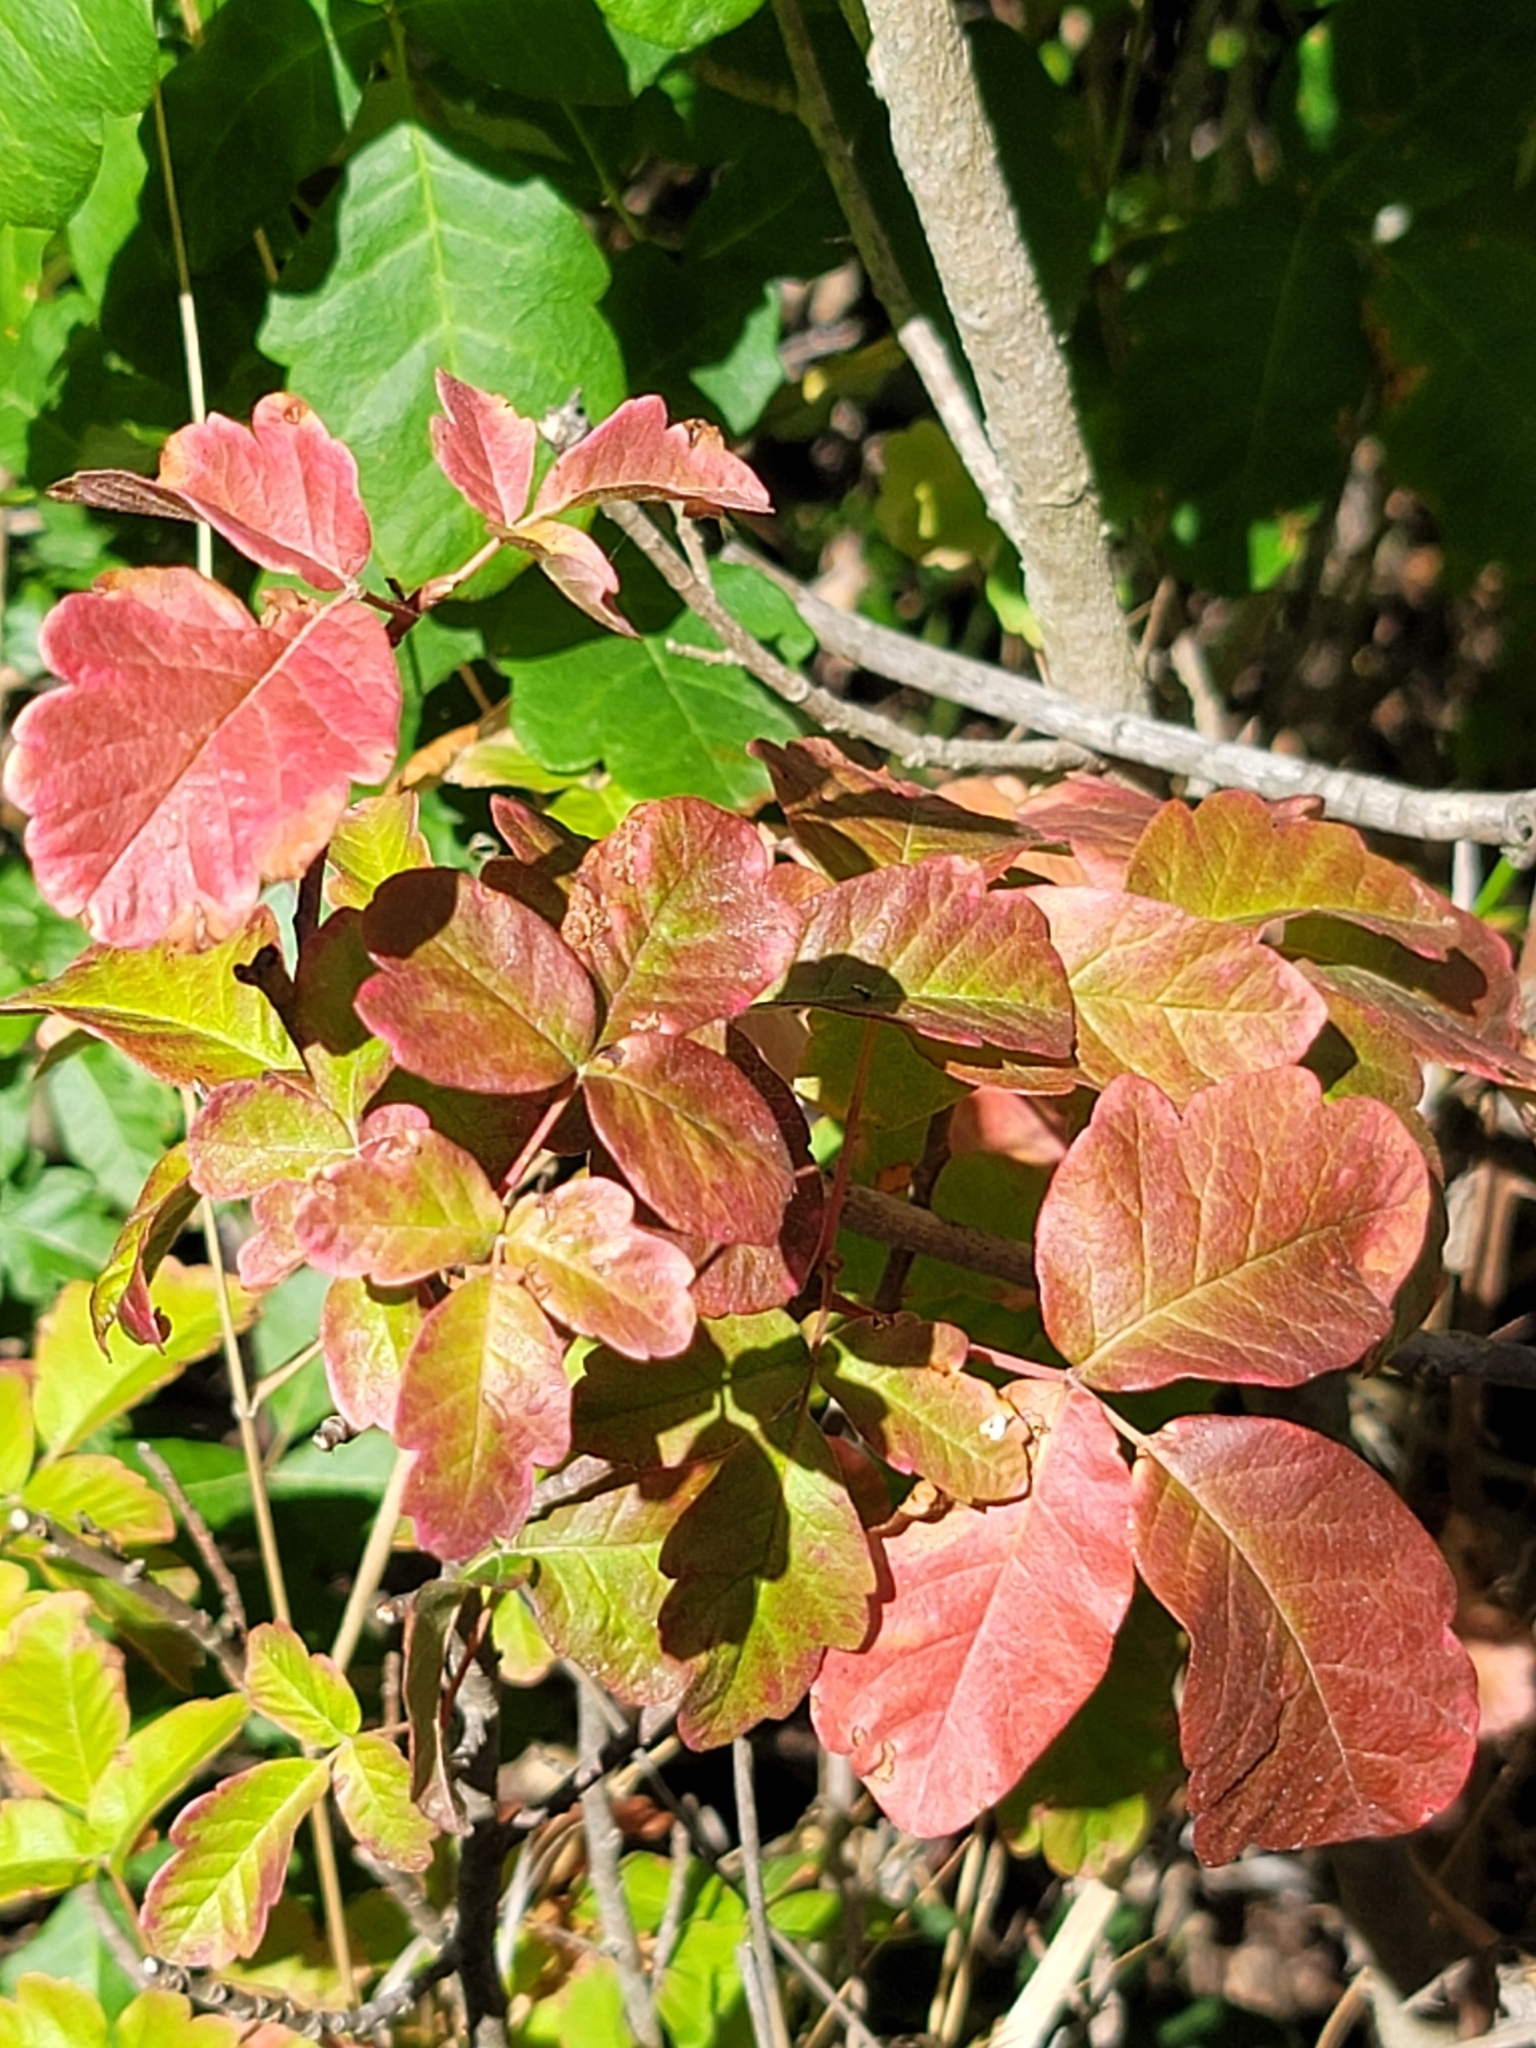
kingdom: Plantae
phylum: Tracheophyta
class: Magnoliopsida
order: Sapindales
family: Anacardiaceae
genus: Toxicodendron
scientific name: Toxicodendron diversilobum
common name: Pacific poison-oak
